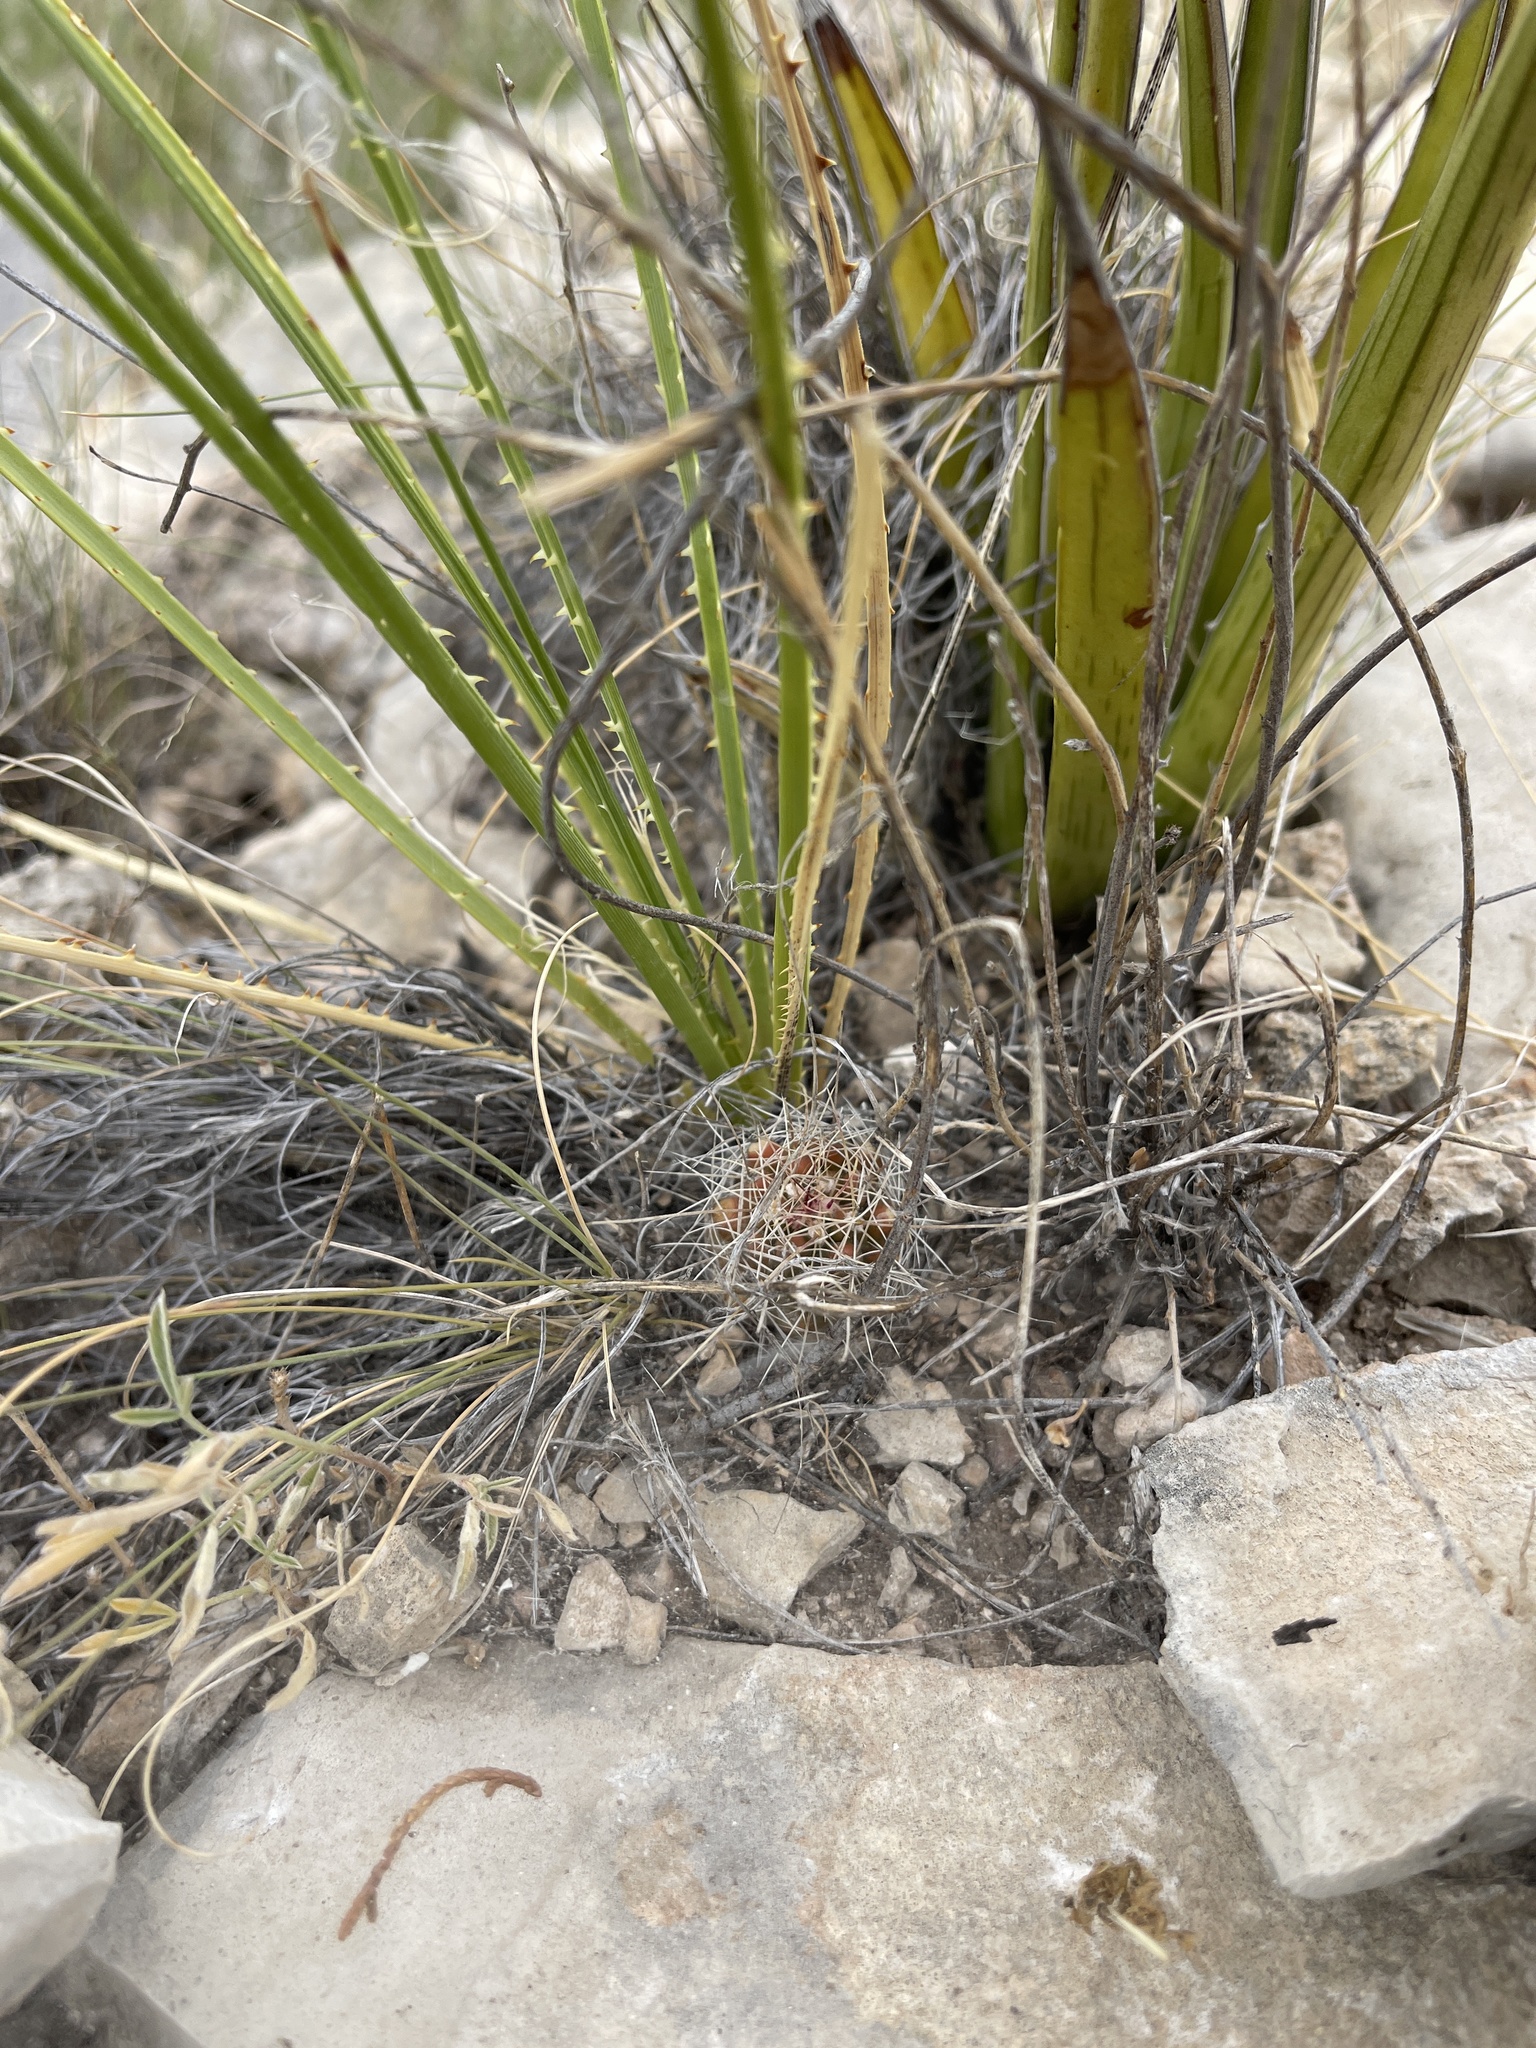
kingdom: Plantae
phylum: Tracheophyta
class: Magnoliopsida
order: Caryophyllales
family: Cactaceae
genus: Echinocereus
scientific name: Echinocereus coccineus
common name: Scarlet hedgehog cactus
